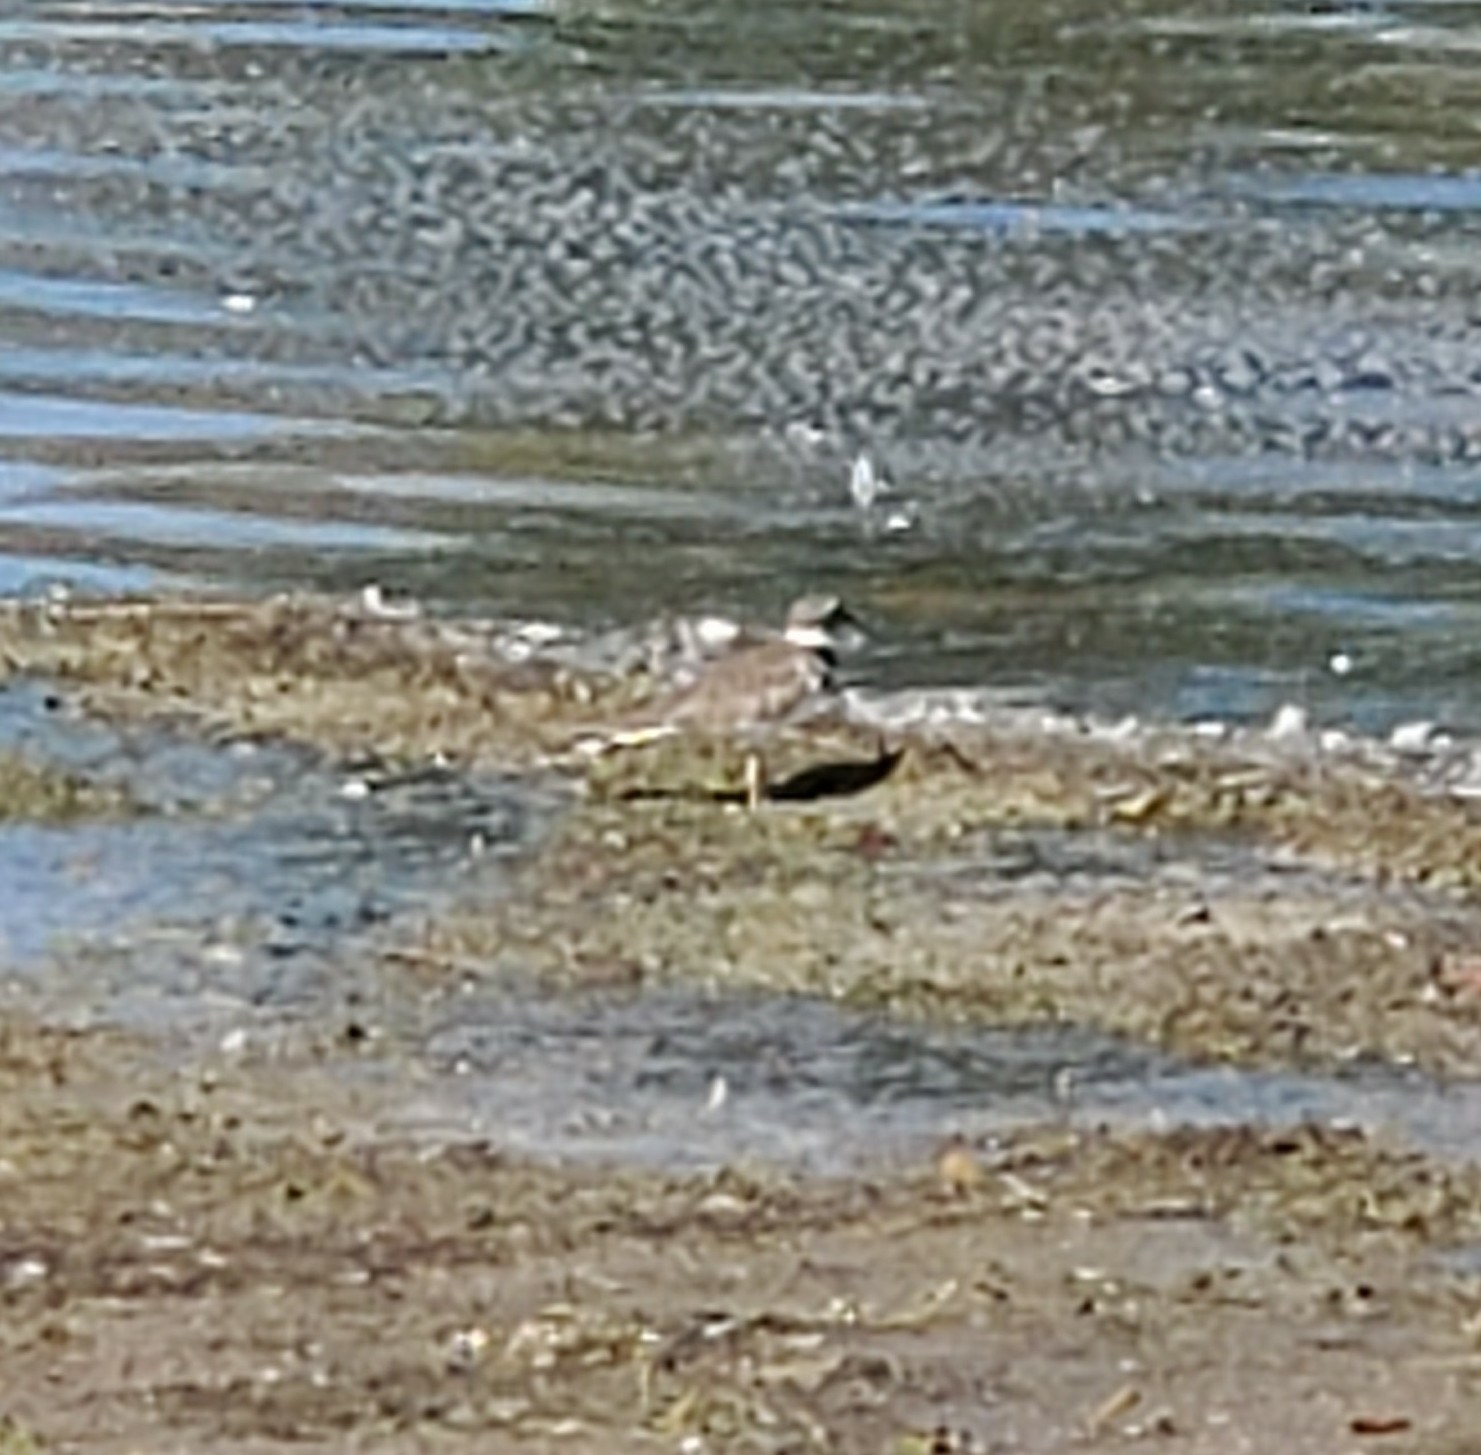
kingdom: Animalia
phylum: Chordata
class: Aves
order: Charadriiformes
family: Charadriidae
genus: Charadrius
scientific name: Charadrius vociferus
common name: Killdeer
